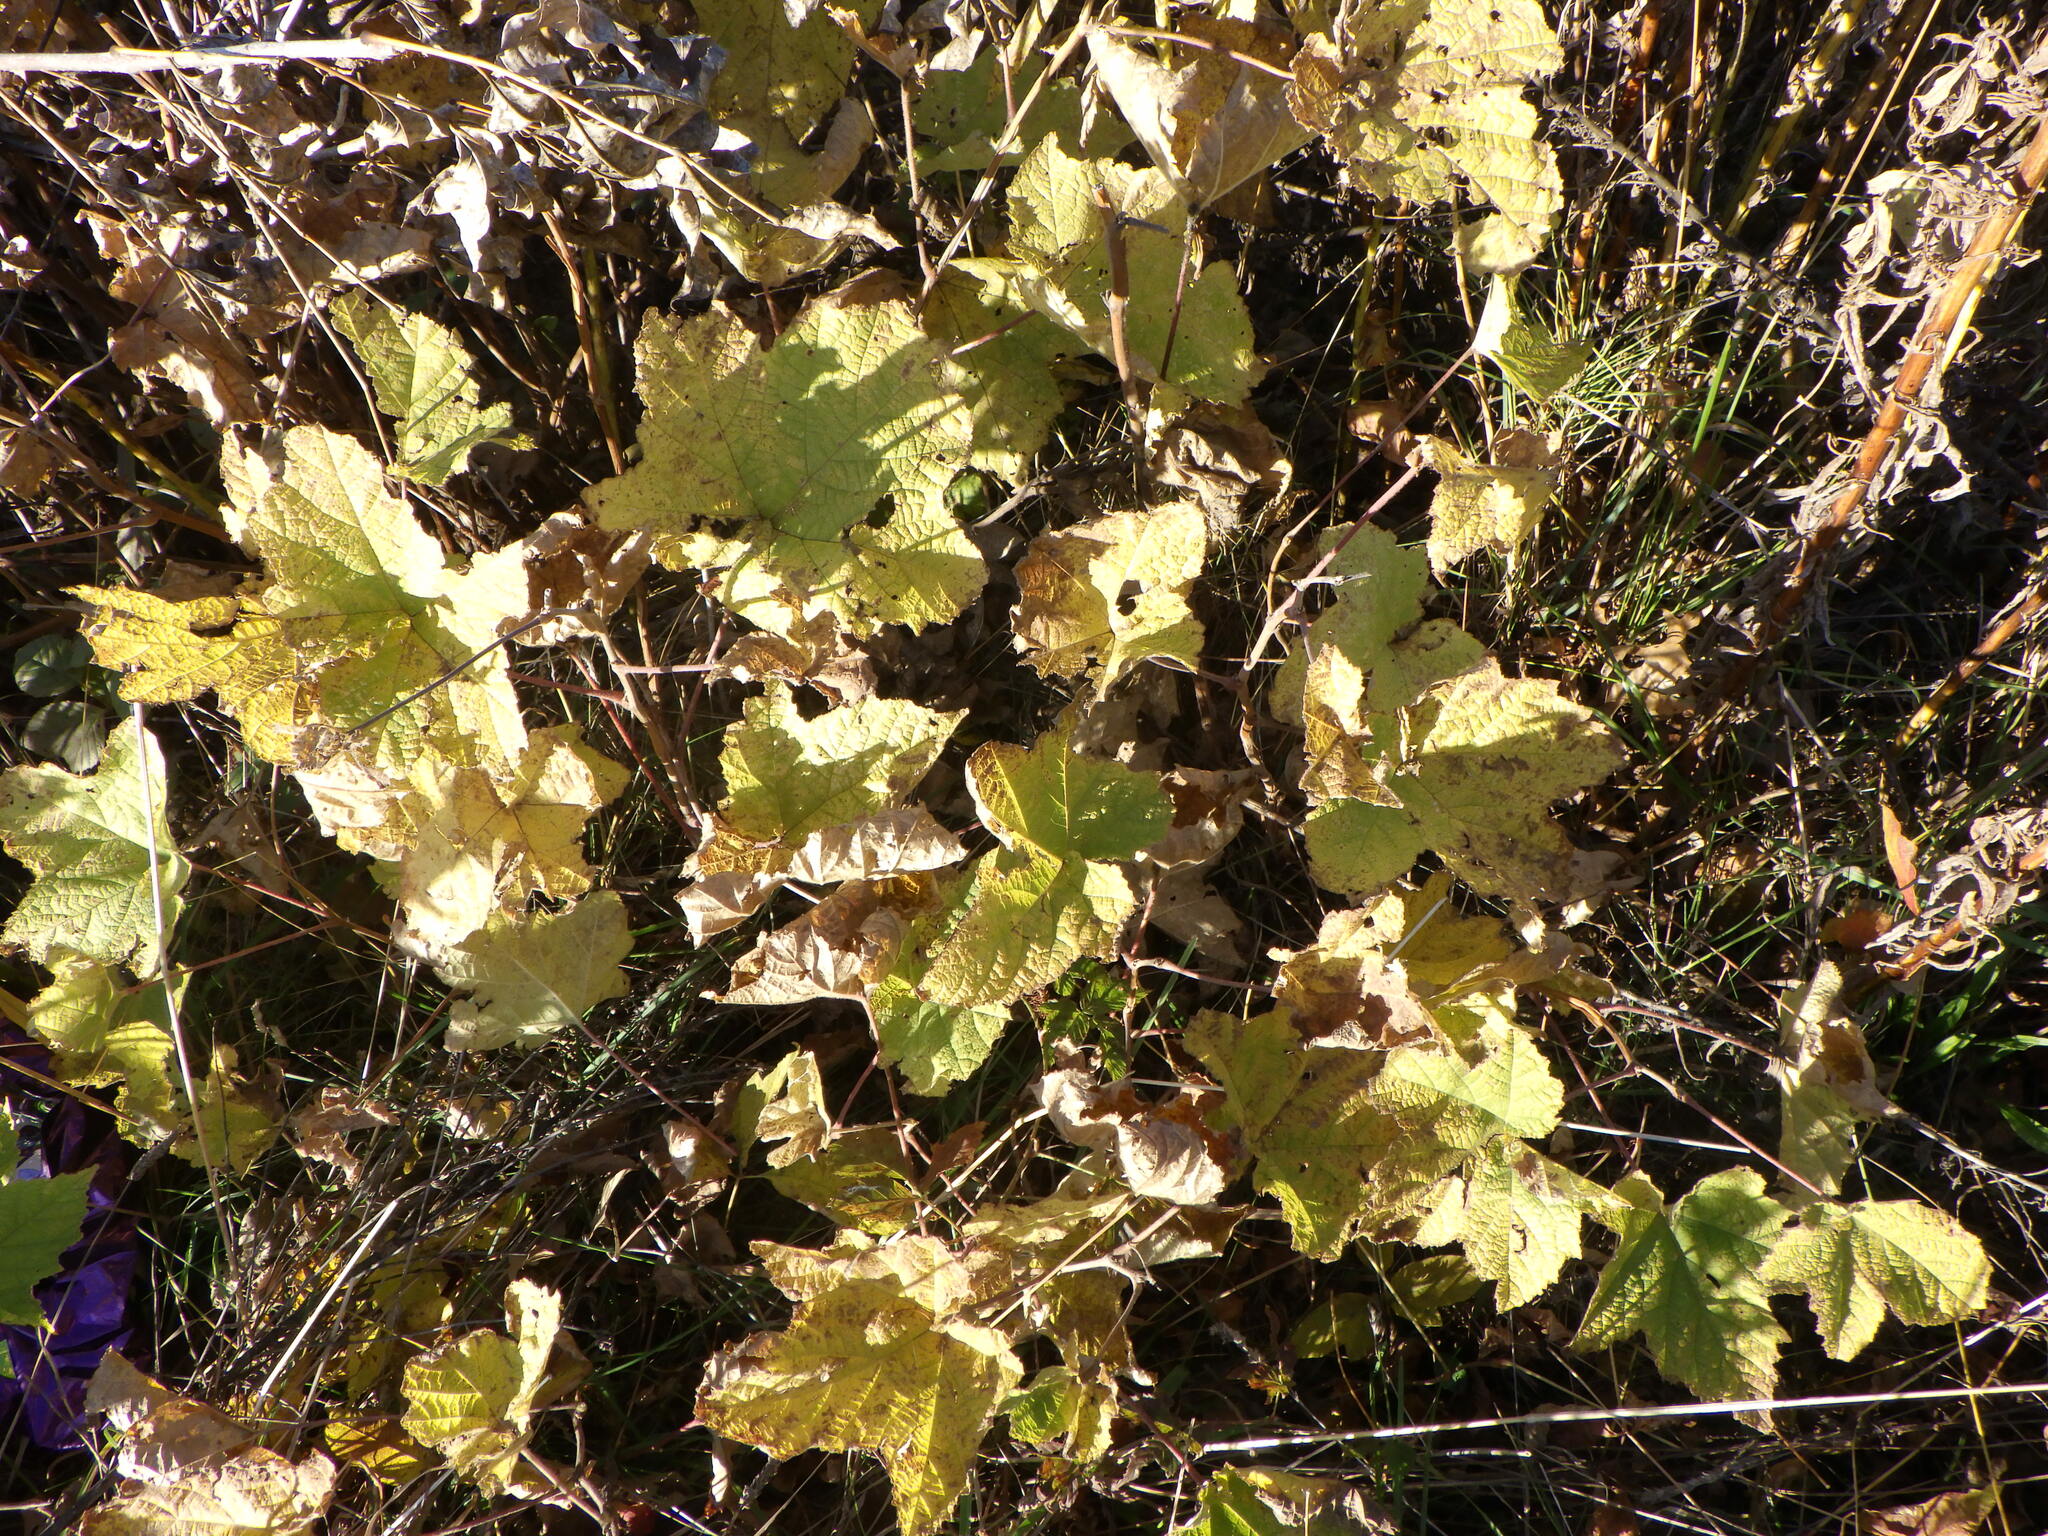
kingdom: Plantae
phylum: Tracheophyta
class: Magnoliopsida
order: Rosales
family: Rosaceae
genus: Rubus
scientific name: Rubus odoratus
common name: Purple-flowered raspberry
